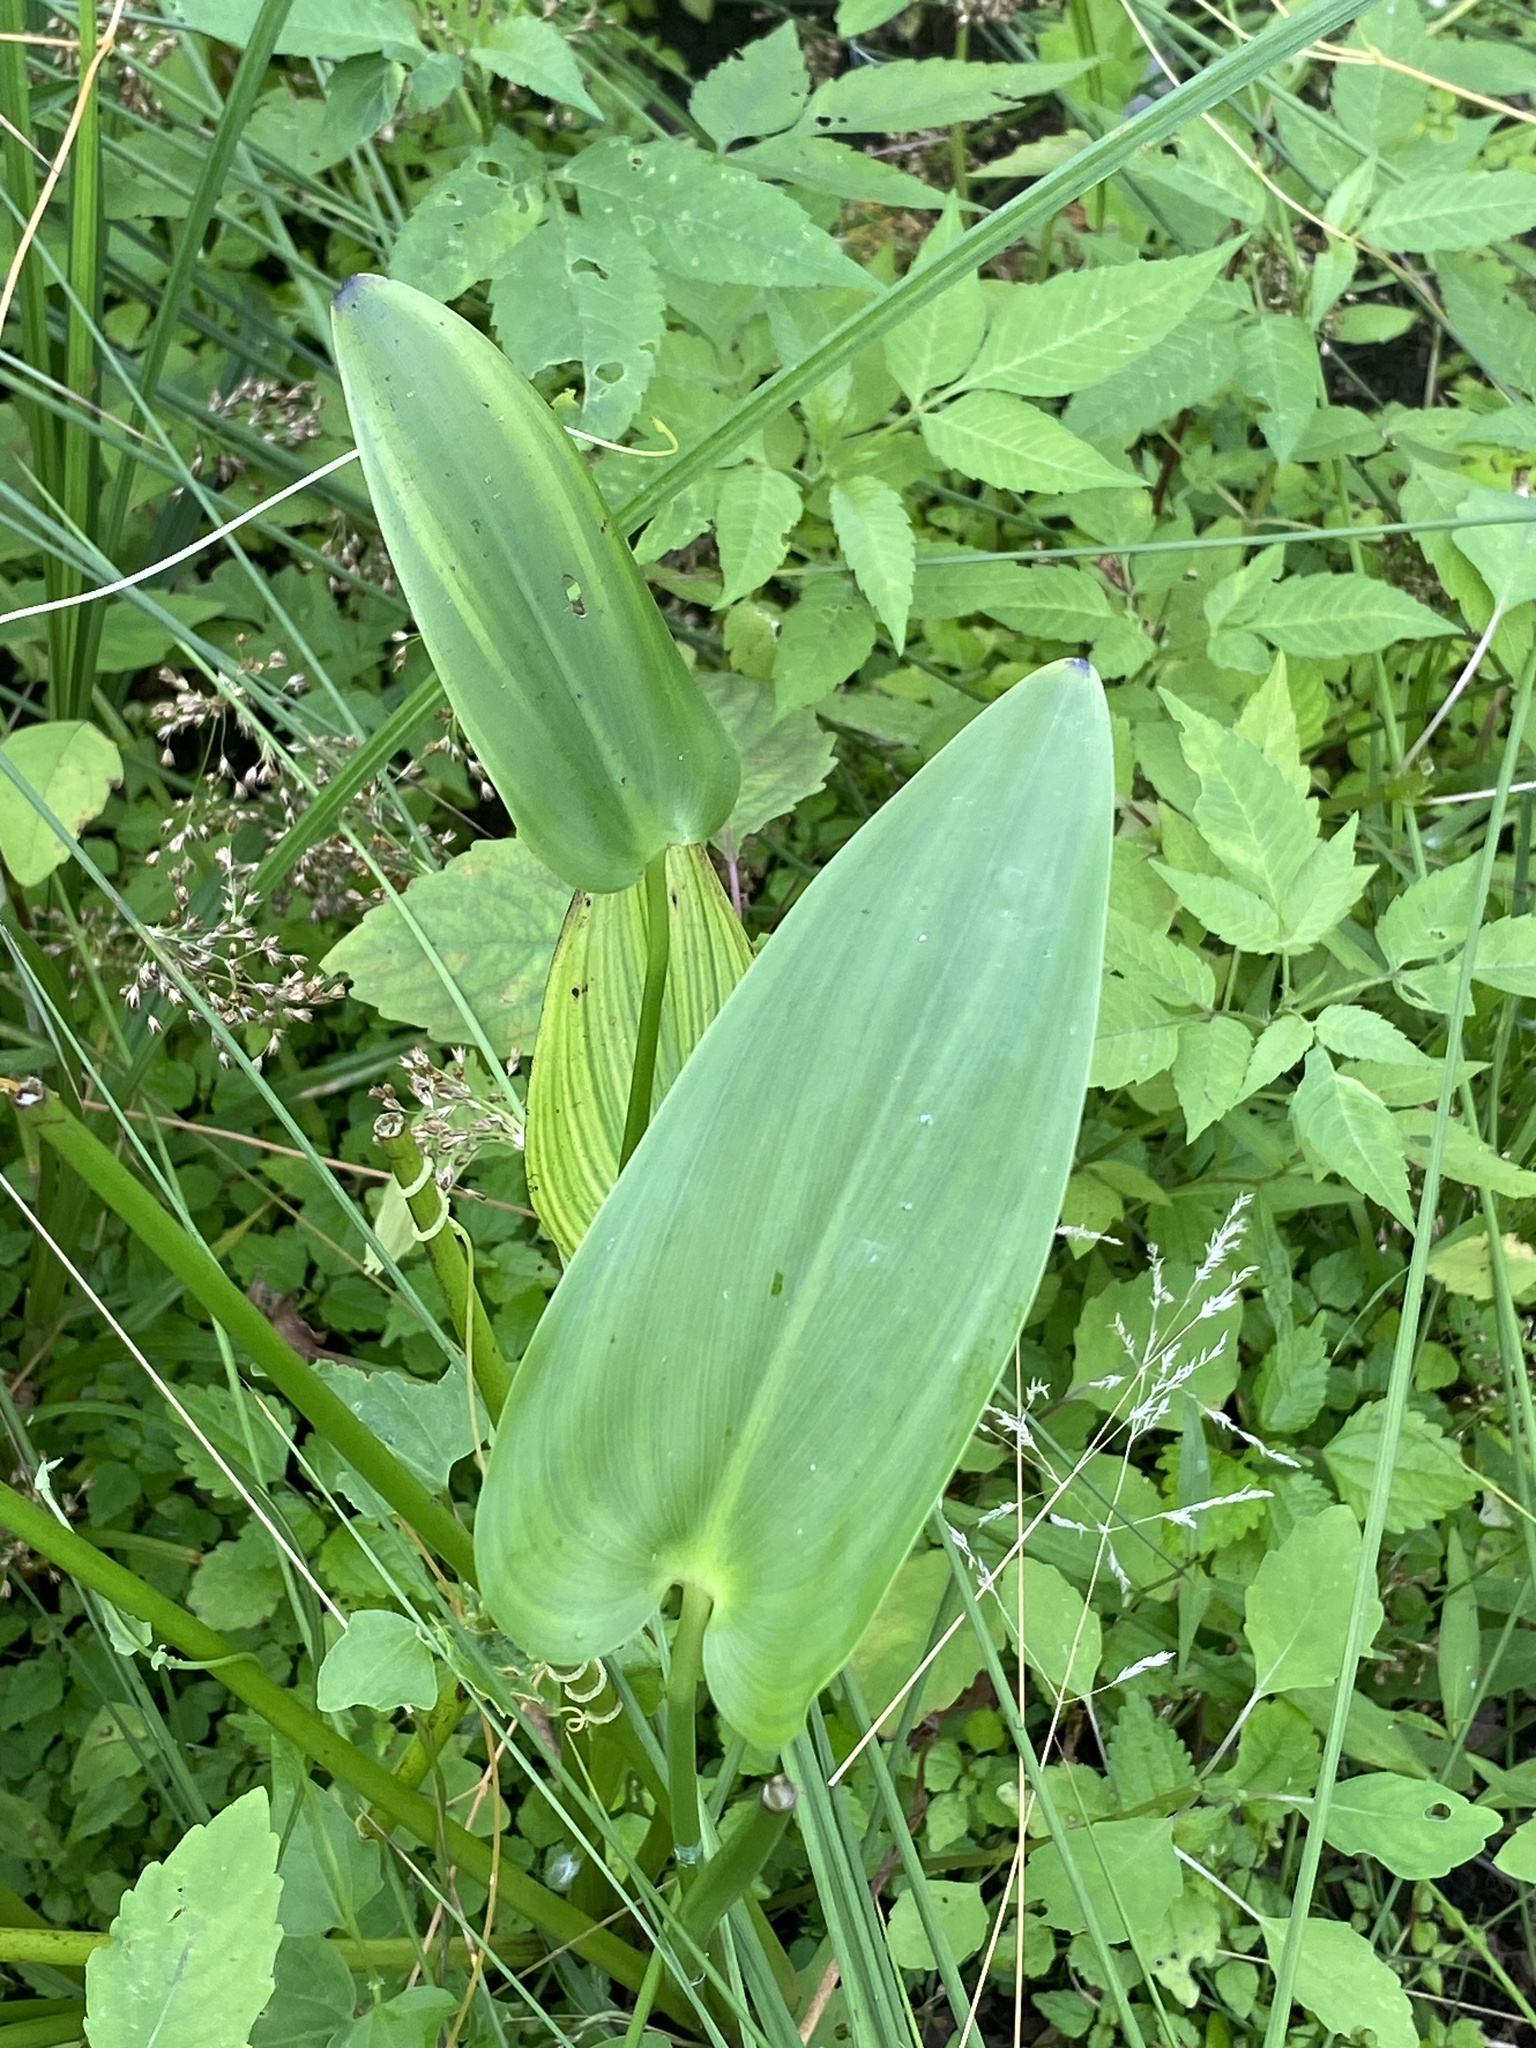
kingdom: Plantae
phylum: Tracheophyta
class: Liliopsida
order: Commelinales
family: Pontederiaceae
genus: Pontederia
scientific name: Pontederia cordata
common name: Pickerelweed
